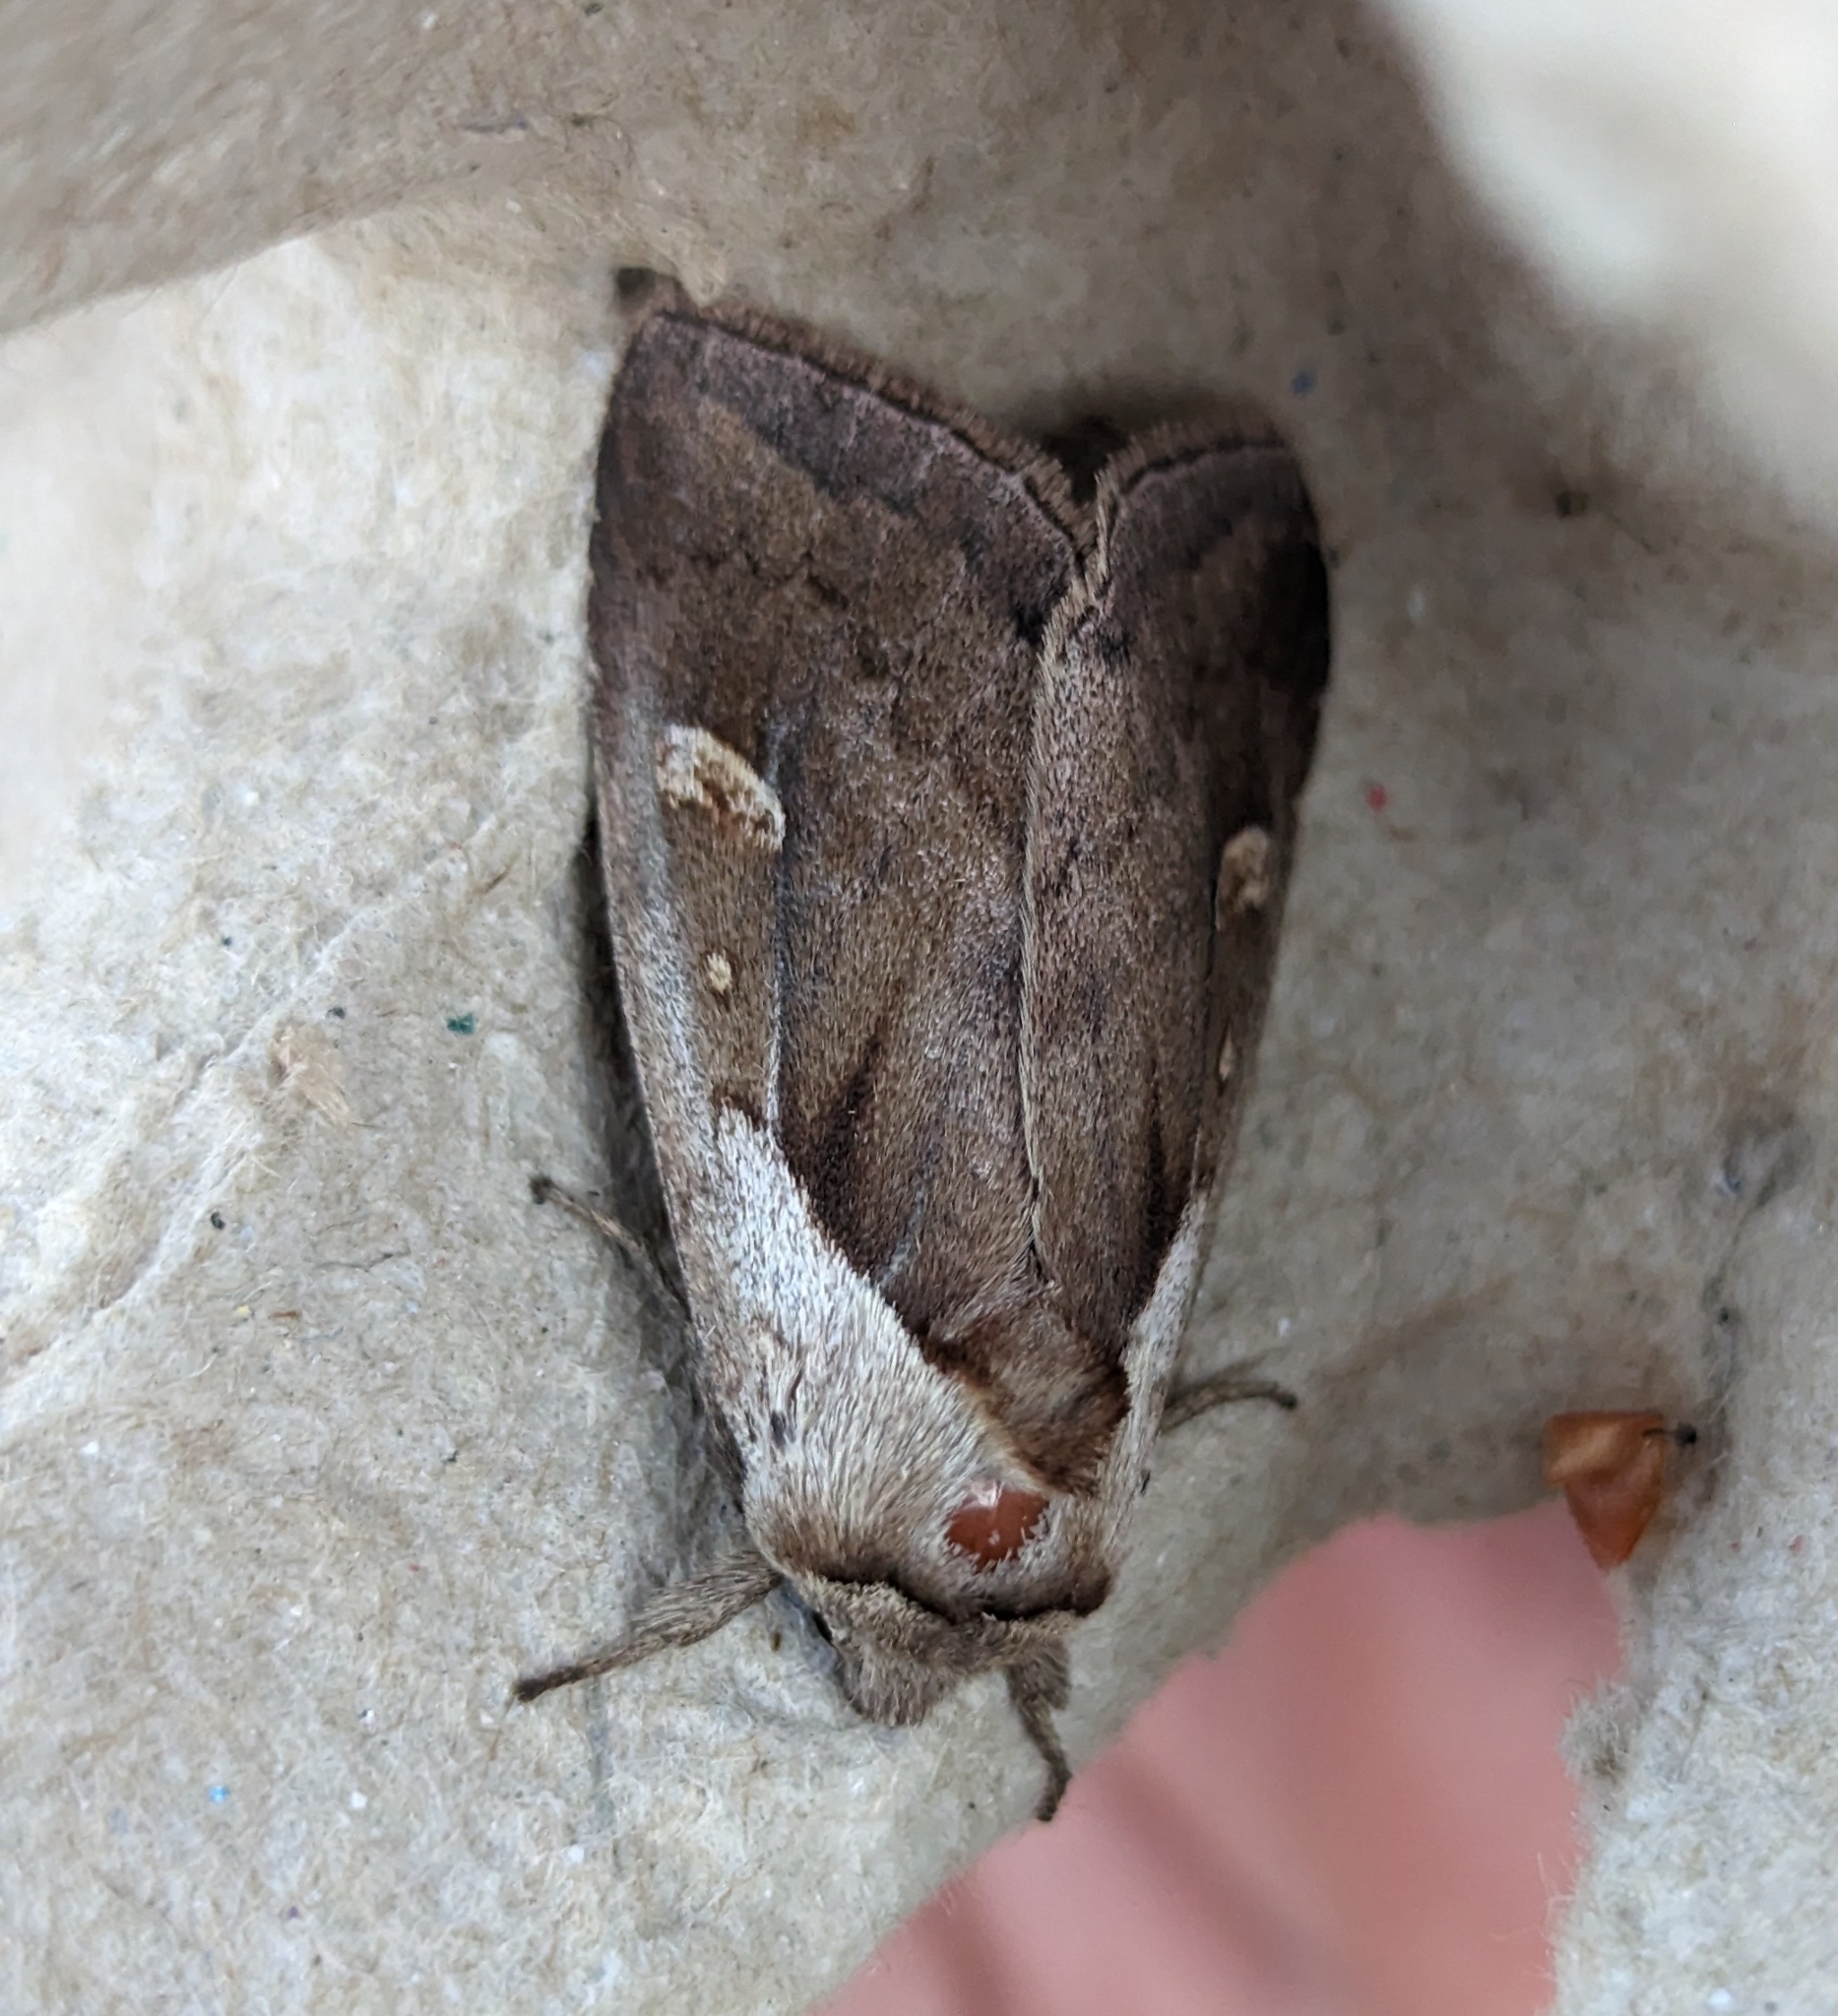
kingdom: Animalia
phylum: Arthropoda
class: Insecta
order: Lepidoptera
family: Noctuidae
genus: Bellura
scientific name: Bellura obliqua
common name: Cattail borer moth
